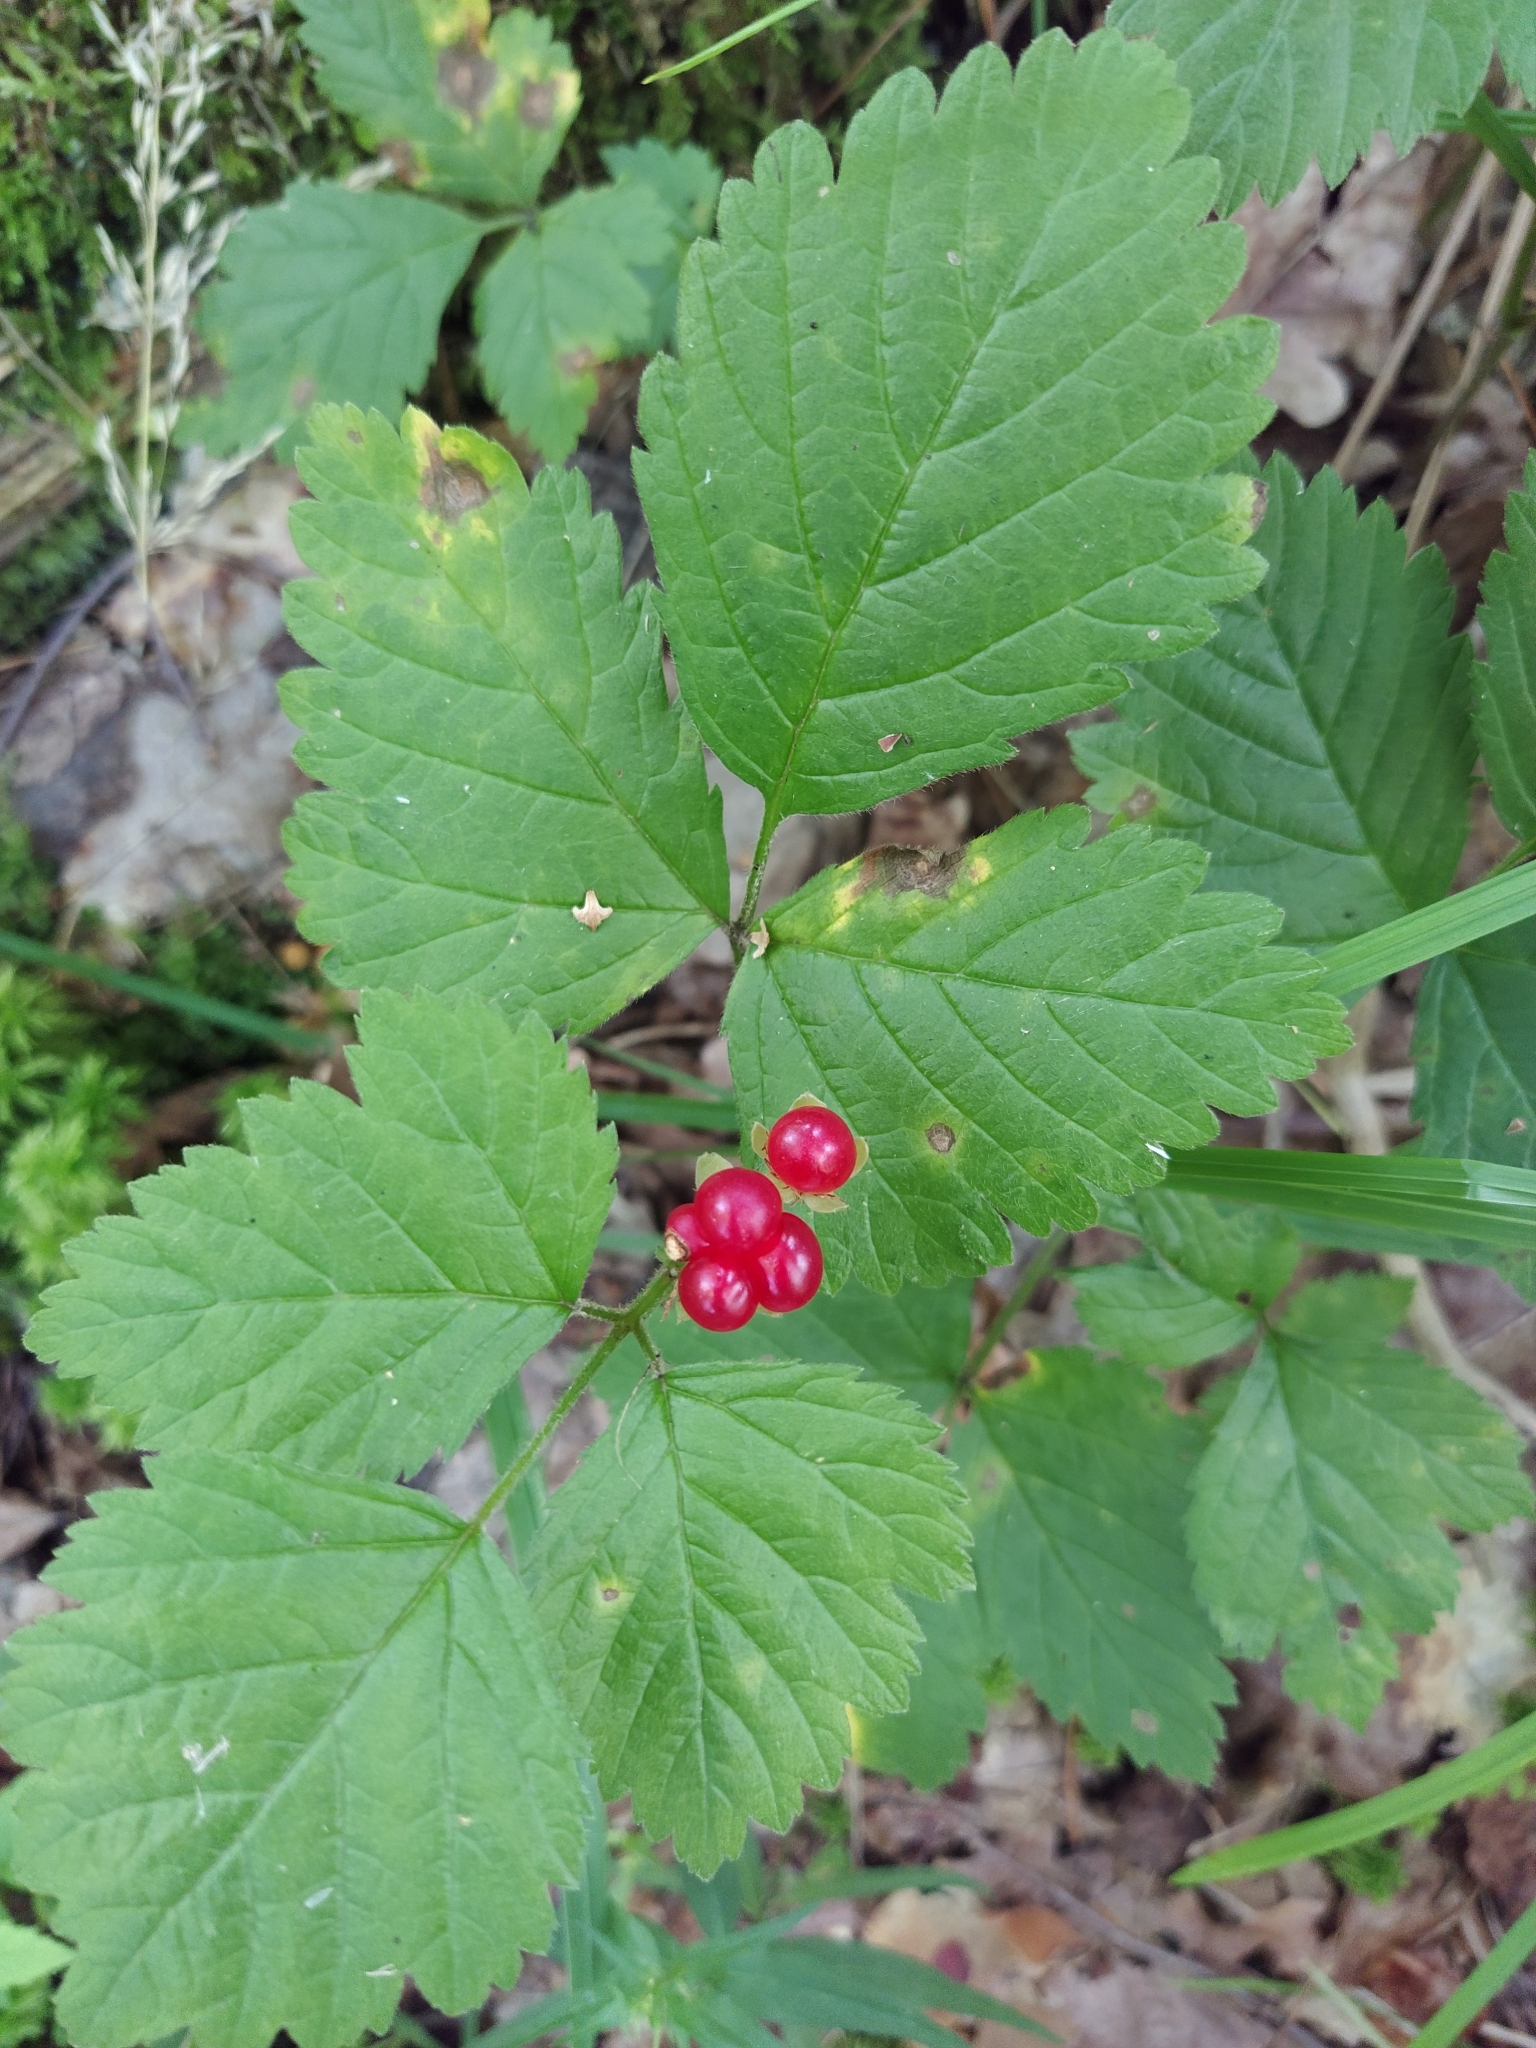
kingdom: Plantae
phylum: Tracheophyta
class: Magnoliopsida
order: Rosales
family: Rosaceae
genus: Rubus
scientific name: Rubus saxatilis
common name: Stone bramble
